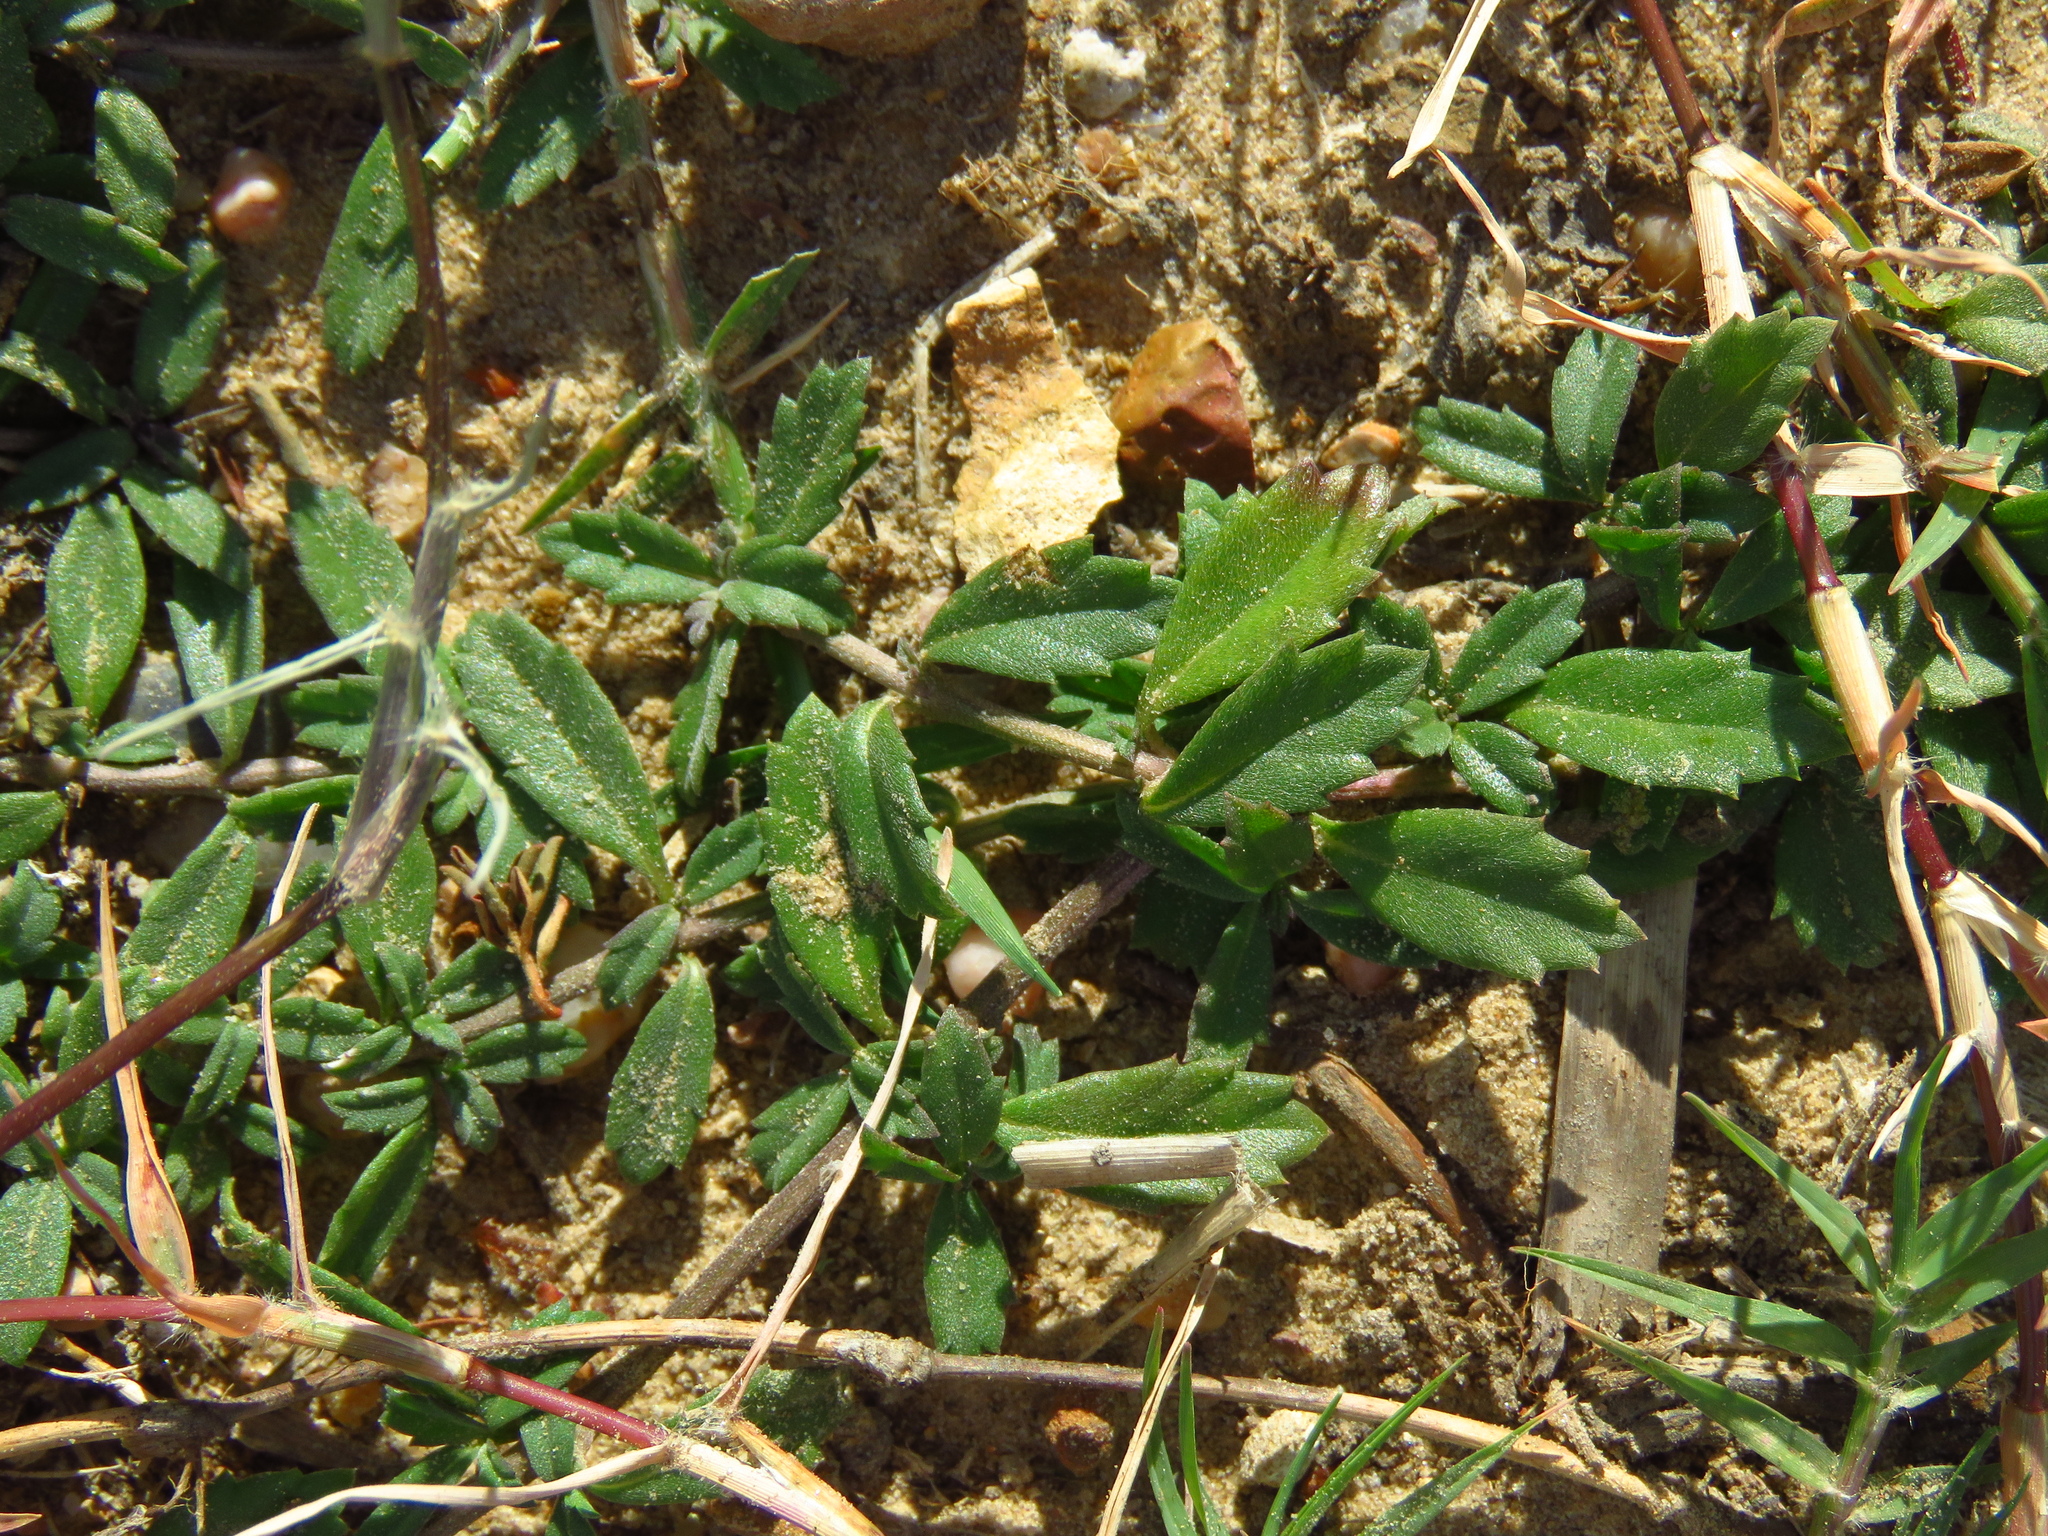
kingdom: Plantae
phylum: Tracheophyta
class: Magnoliopsida
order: Lamiales
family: Verbenaceae
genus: Phyla
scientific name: Phyla nodiflora
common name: Frogfruit
